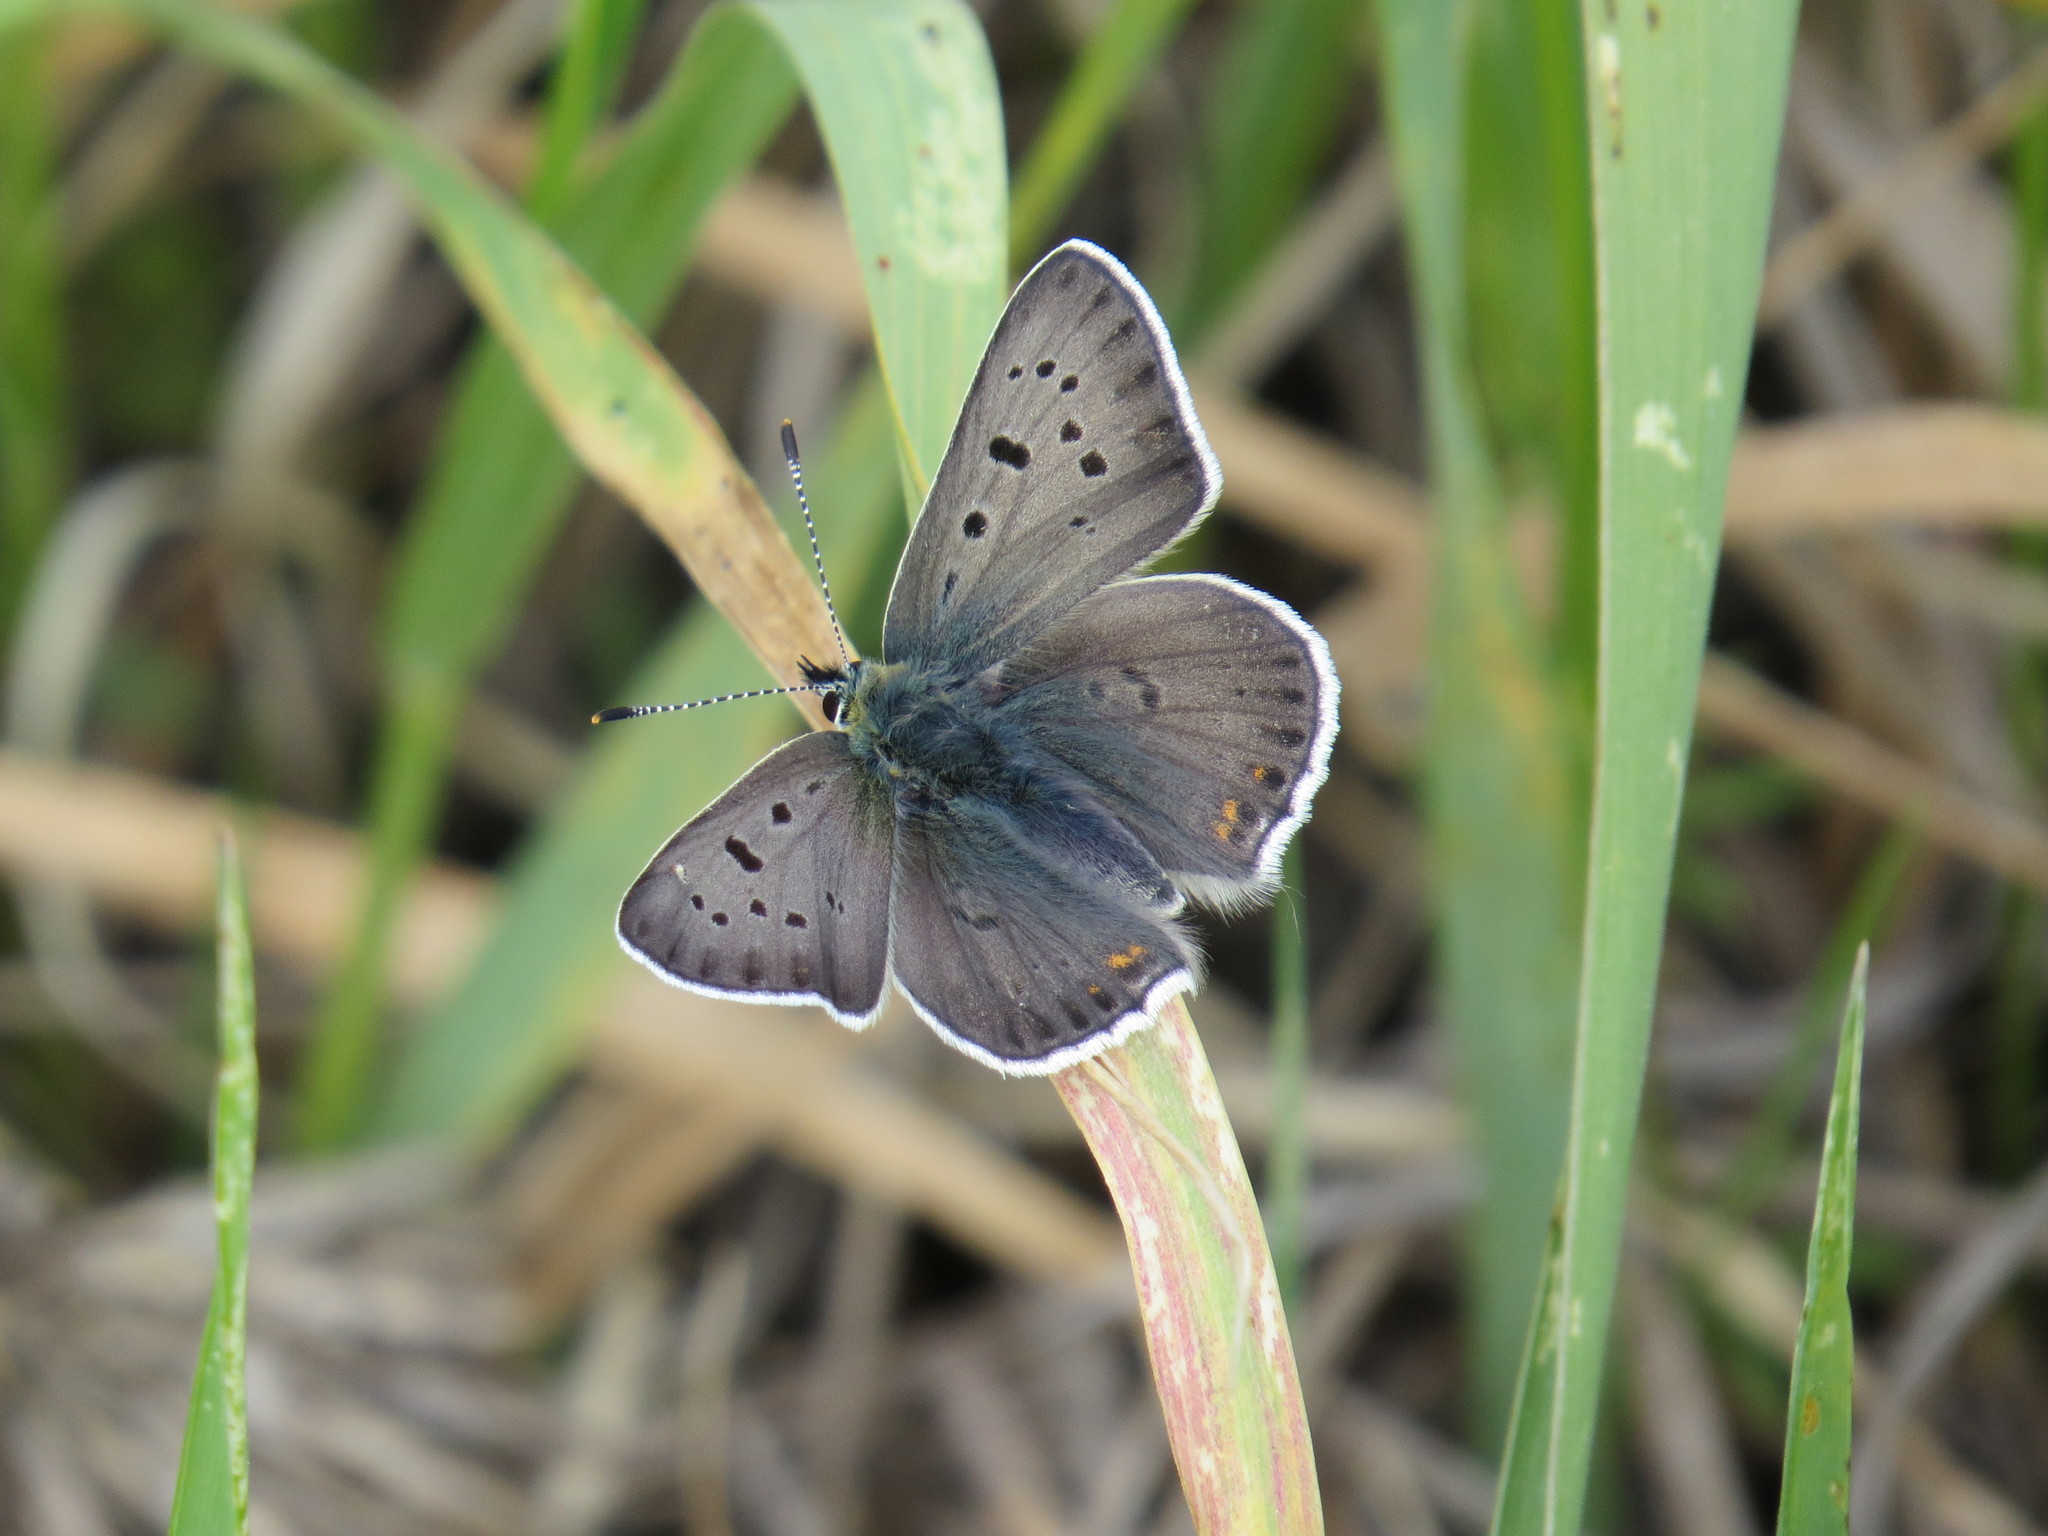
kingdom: Animalia
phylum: Arthropoda
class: Insecta
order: Lepidoptera
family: Lycaenidae
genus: Loweia
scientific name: Loweia tityrus
